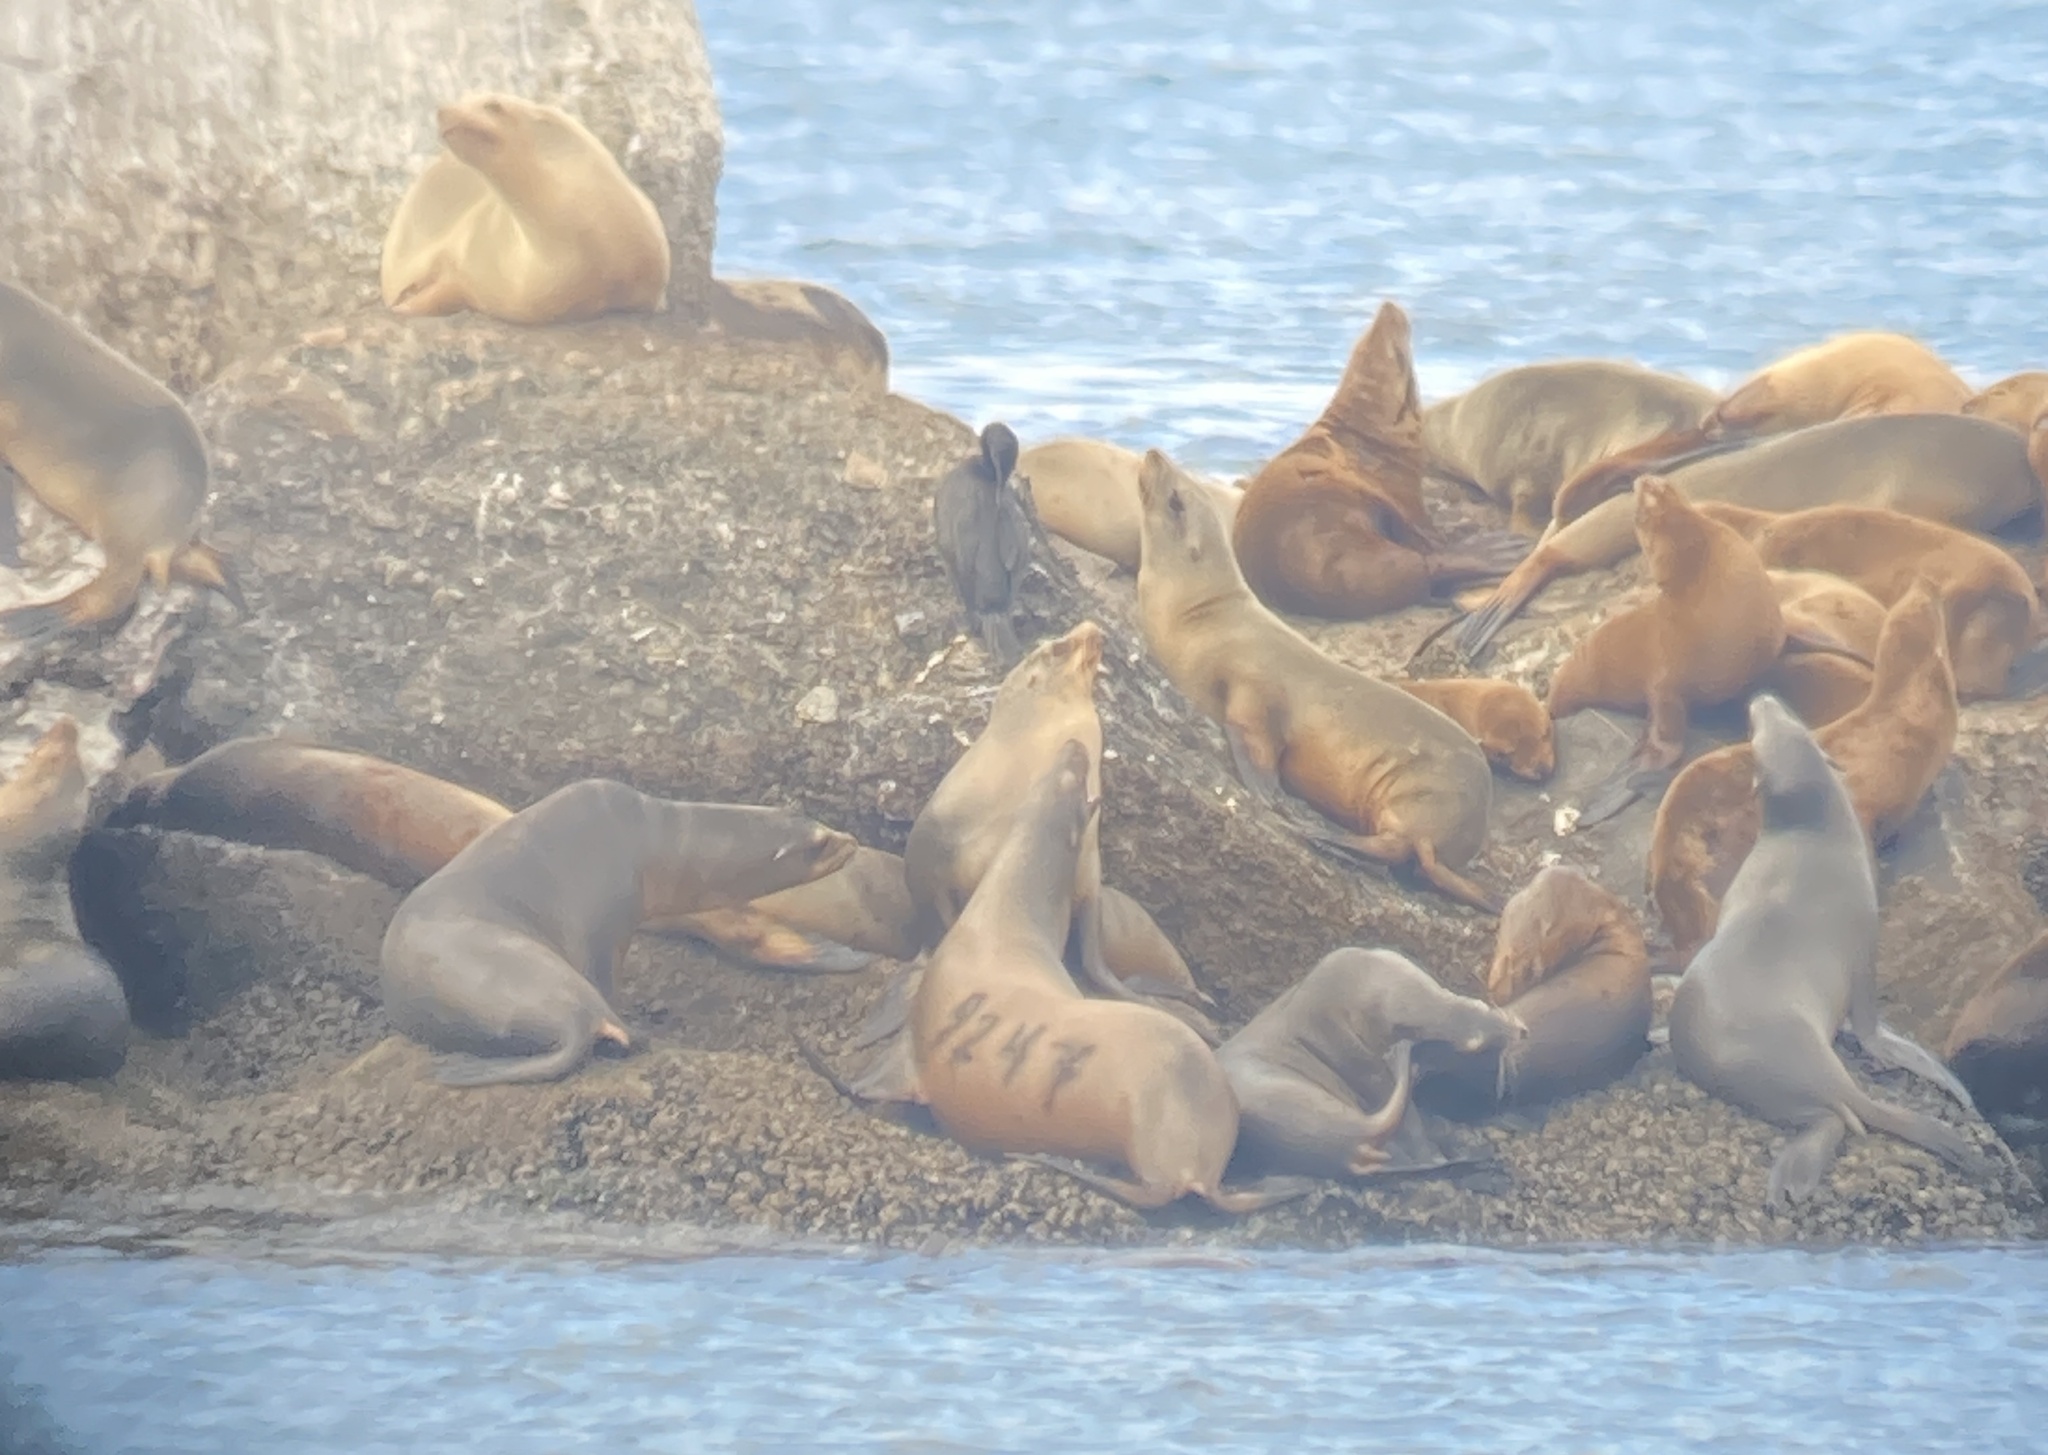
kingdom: Animalia
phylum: Chordata
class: Mammalia
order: Carnivora
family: Otariidae
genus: Zalophus
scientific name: Zalophus californianus
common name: California sea lion
